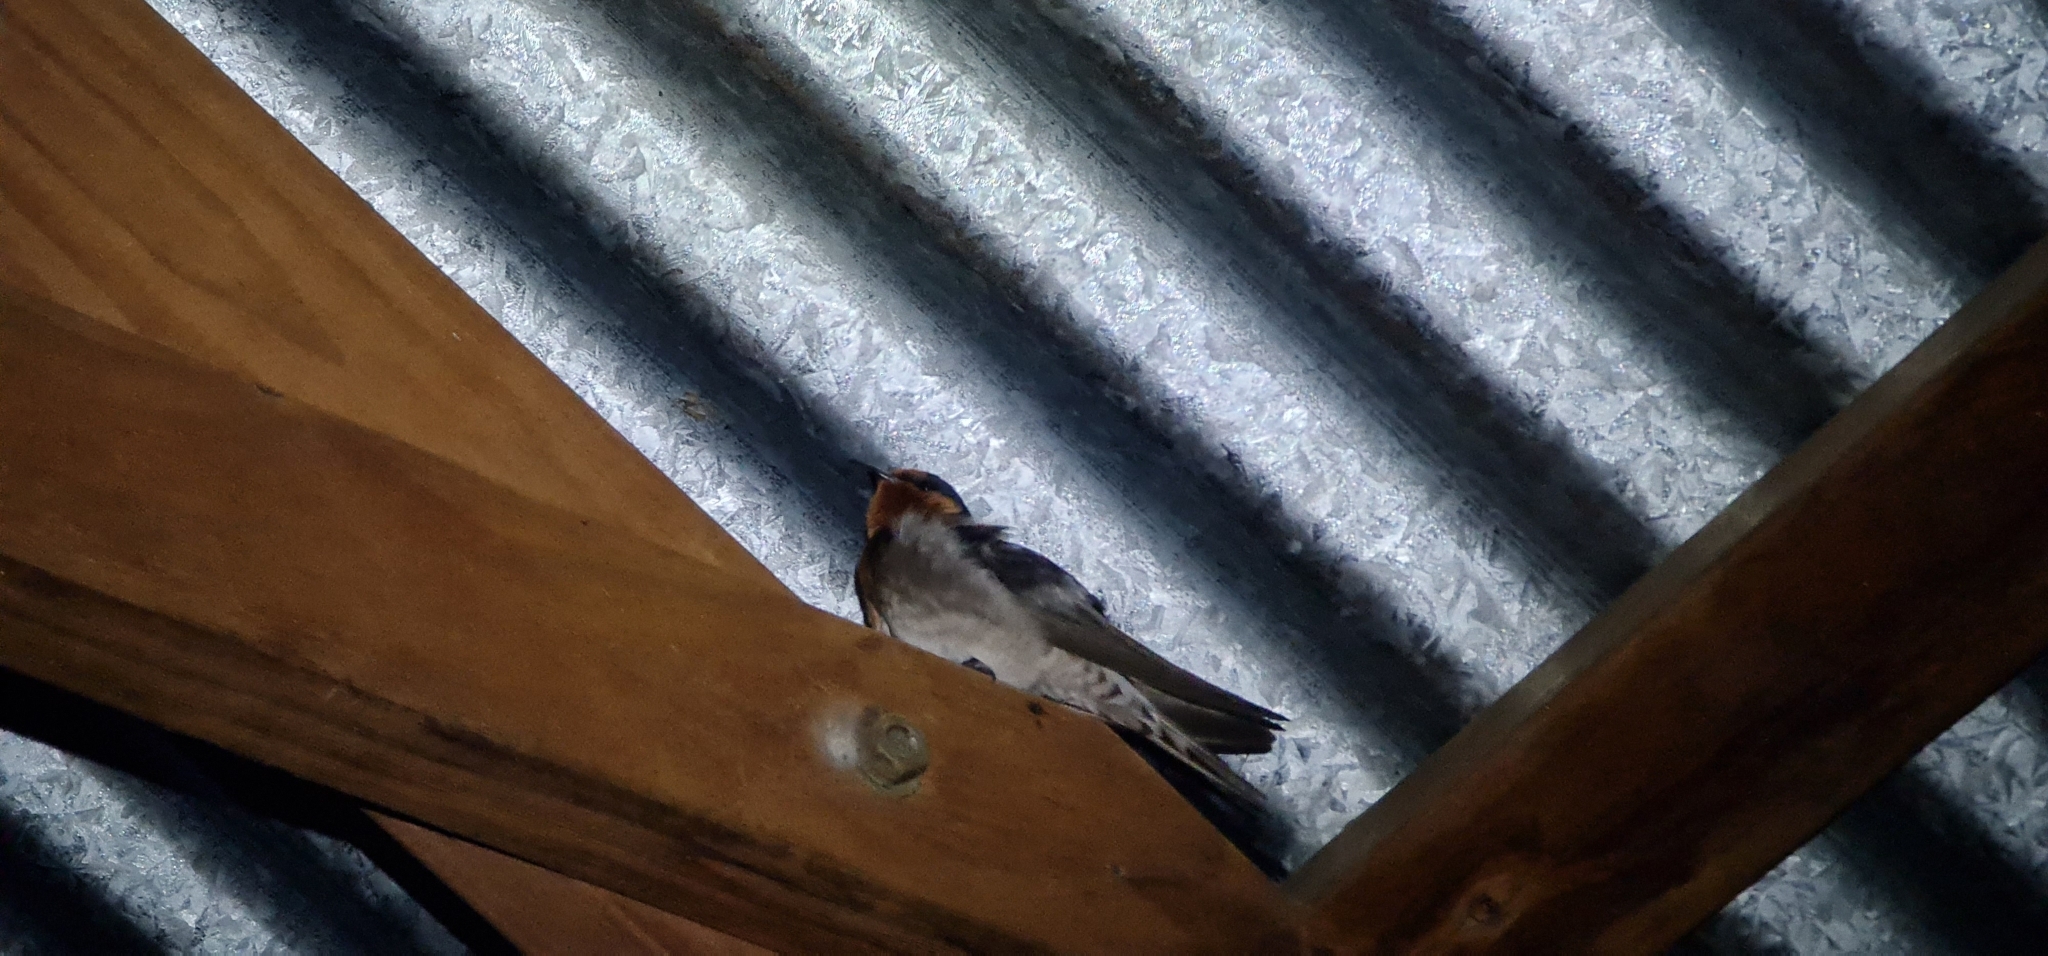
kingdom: Animalia
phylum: Chordata
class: Aves
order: Passeriformes
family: Hirundinidae
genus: Hirundo
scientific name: Hirundo neoxena
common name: Welcome swallow
